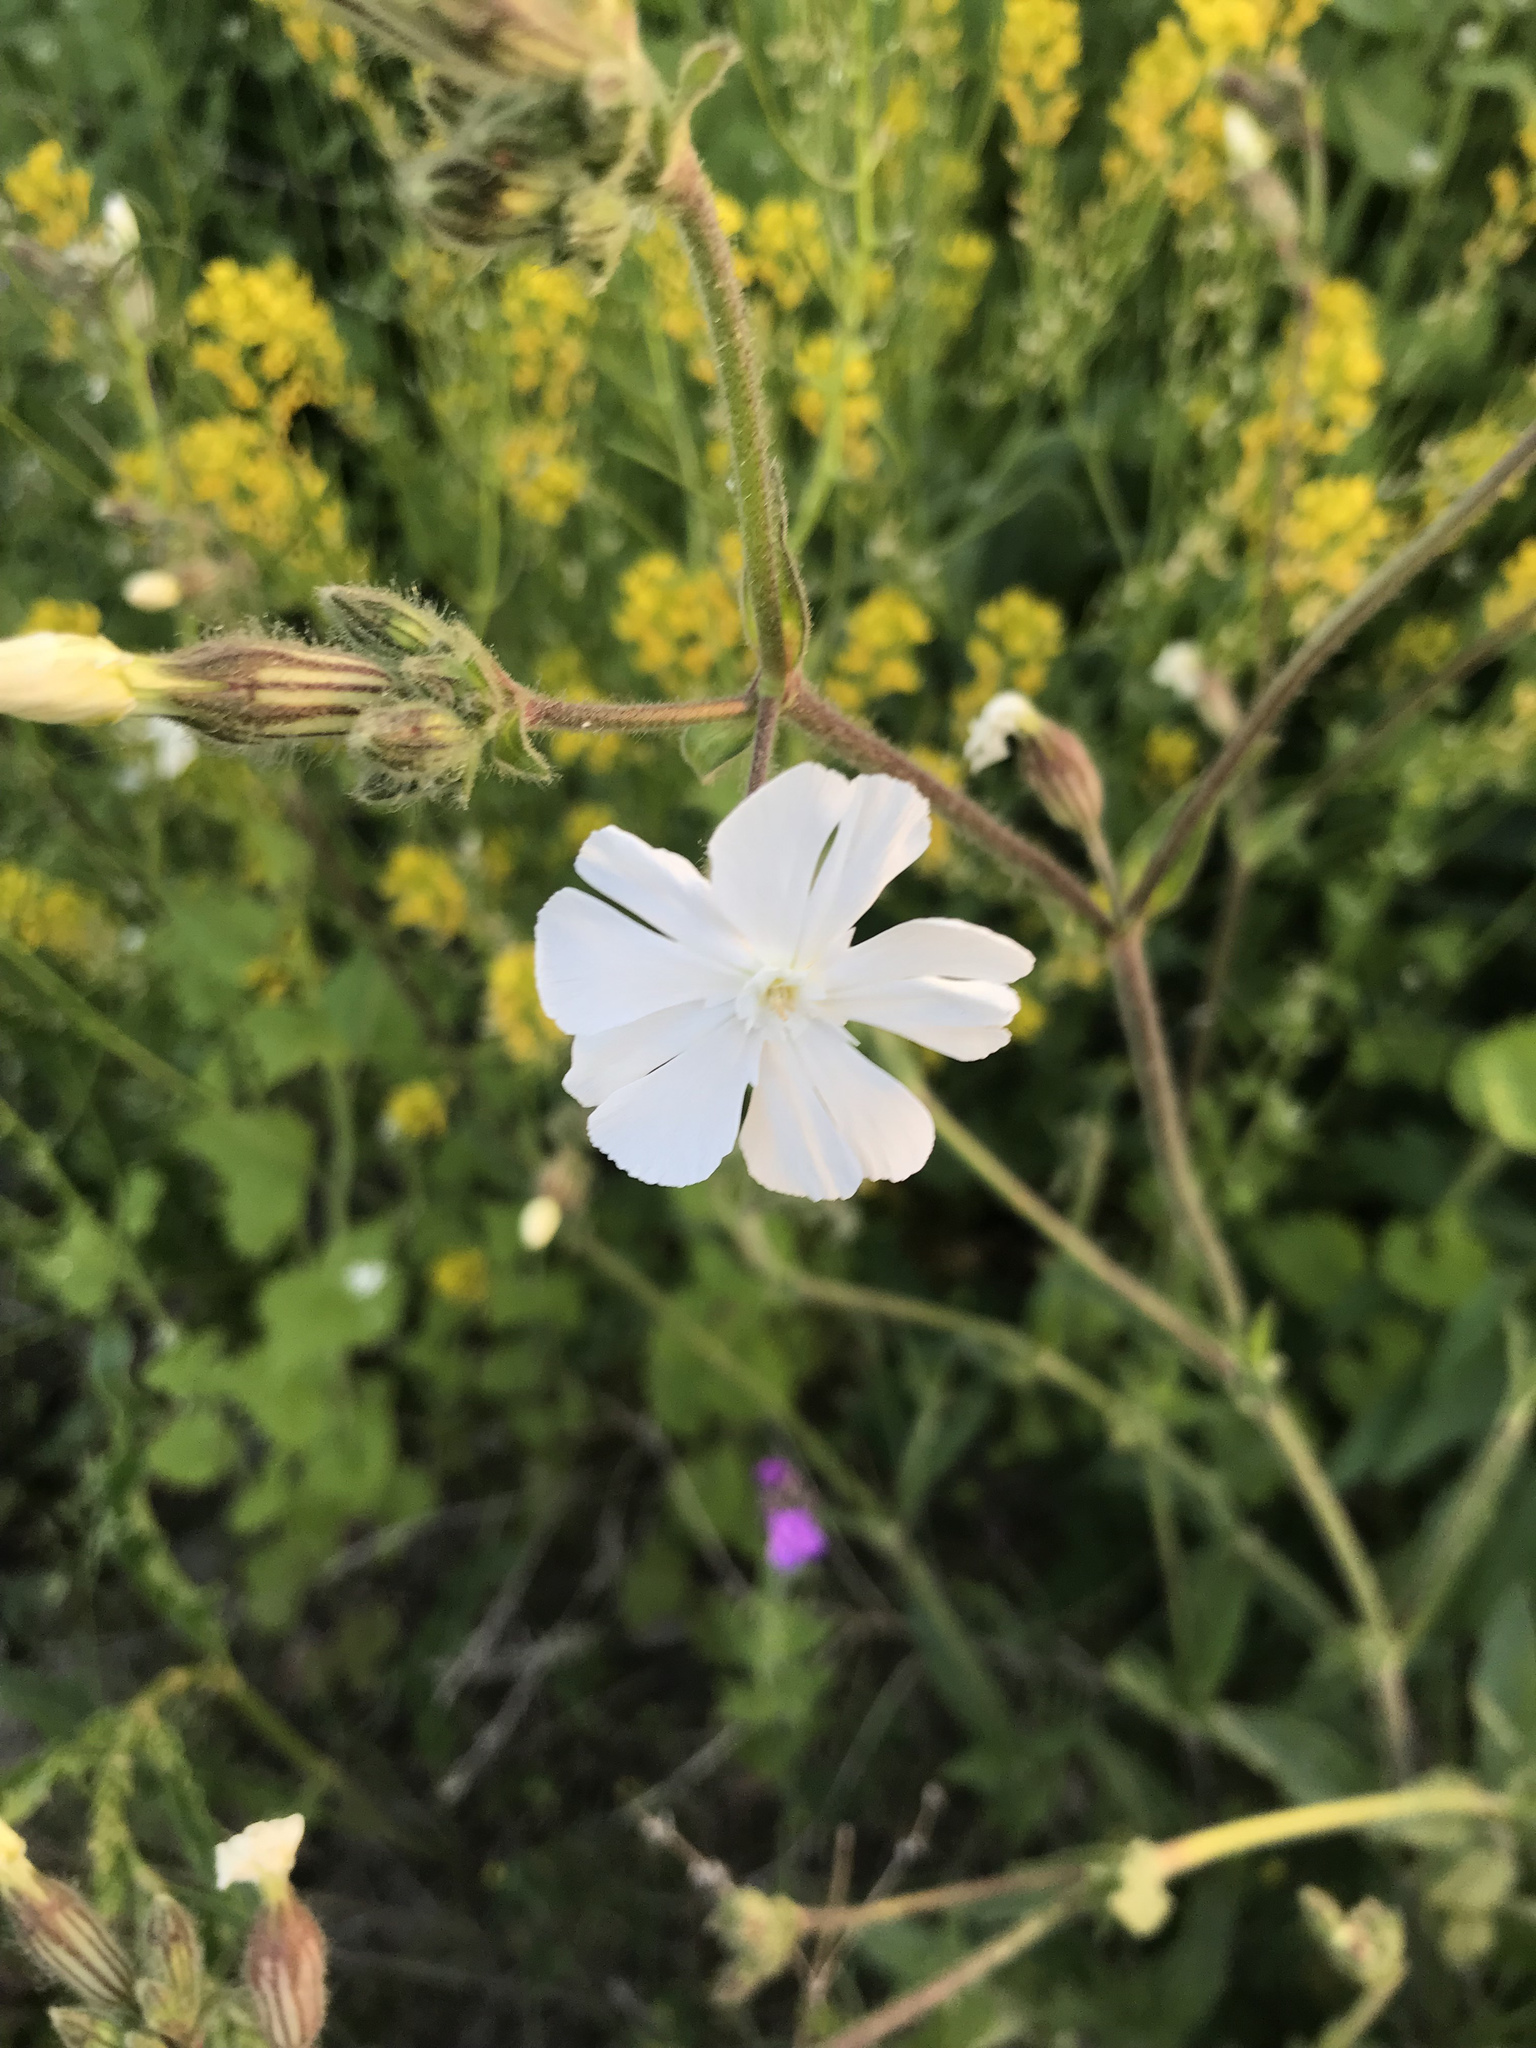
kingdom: Plantae
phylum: Tracheophyta
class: Magnoliopsida
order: Caryophyllales
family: Caryophyllaceae
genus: Silene
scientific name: Silene latifolia
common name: White campion
